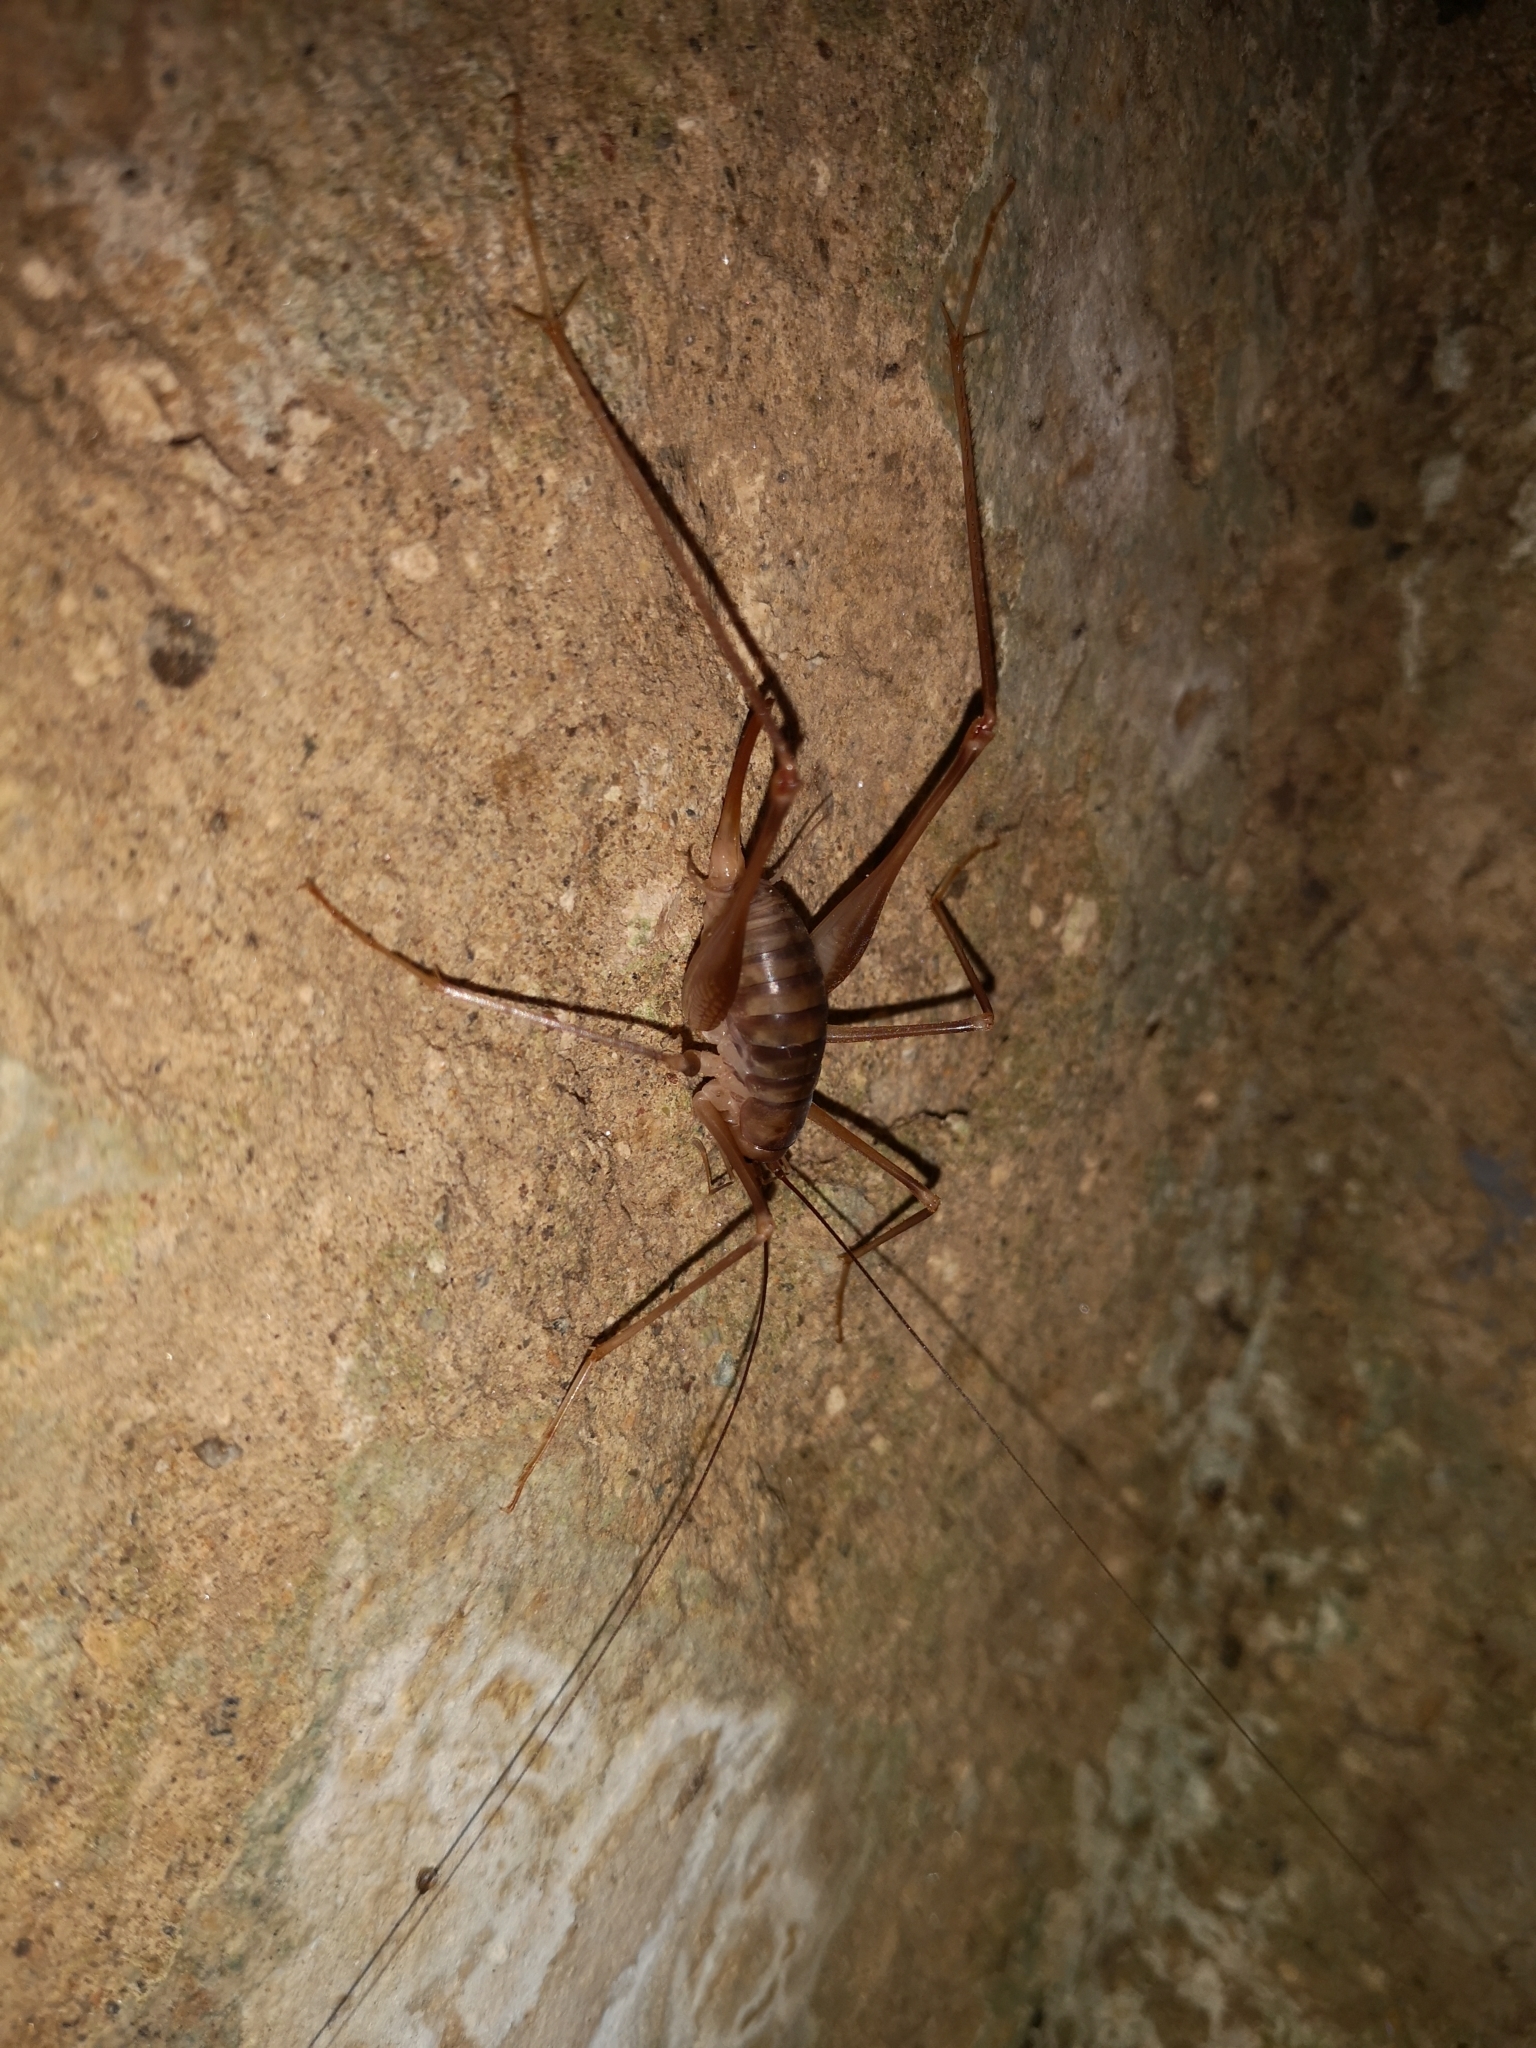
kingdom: Animalia
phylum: Arthropoda
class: Insecta
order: Orthoptera
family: Rhaphidophoridae
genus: Dolichopoda
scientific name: Dolichopoda laetitiae
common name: Laetitia's cave cricket
